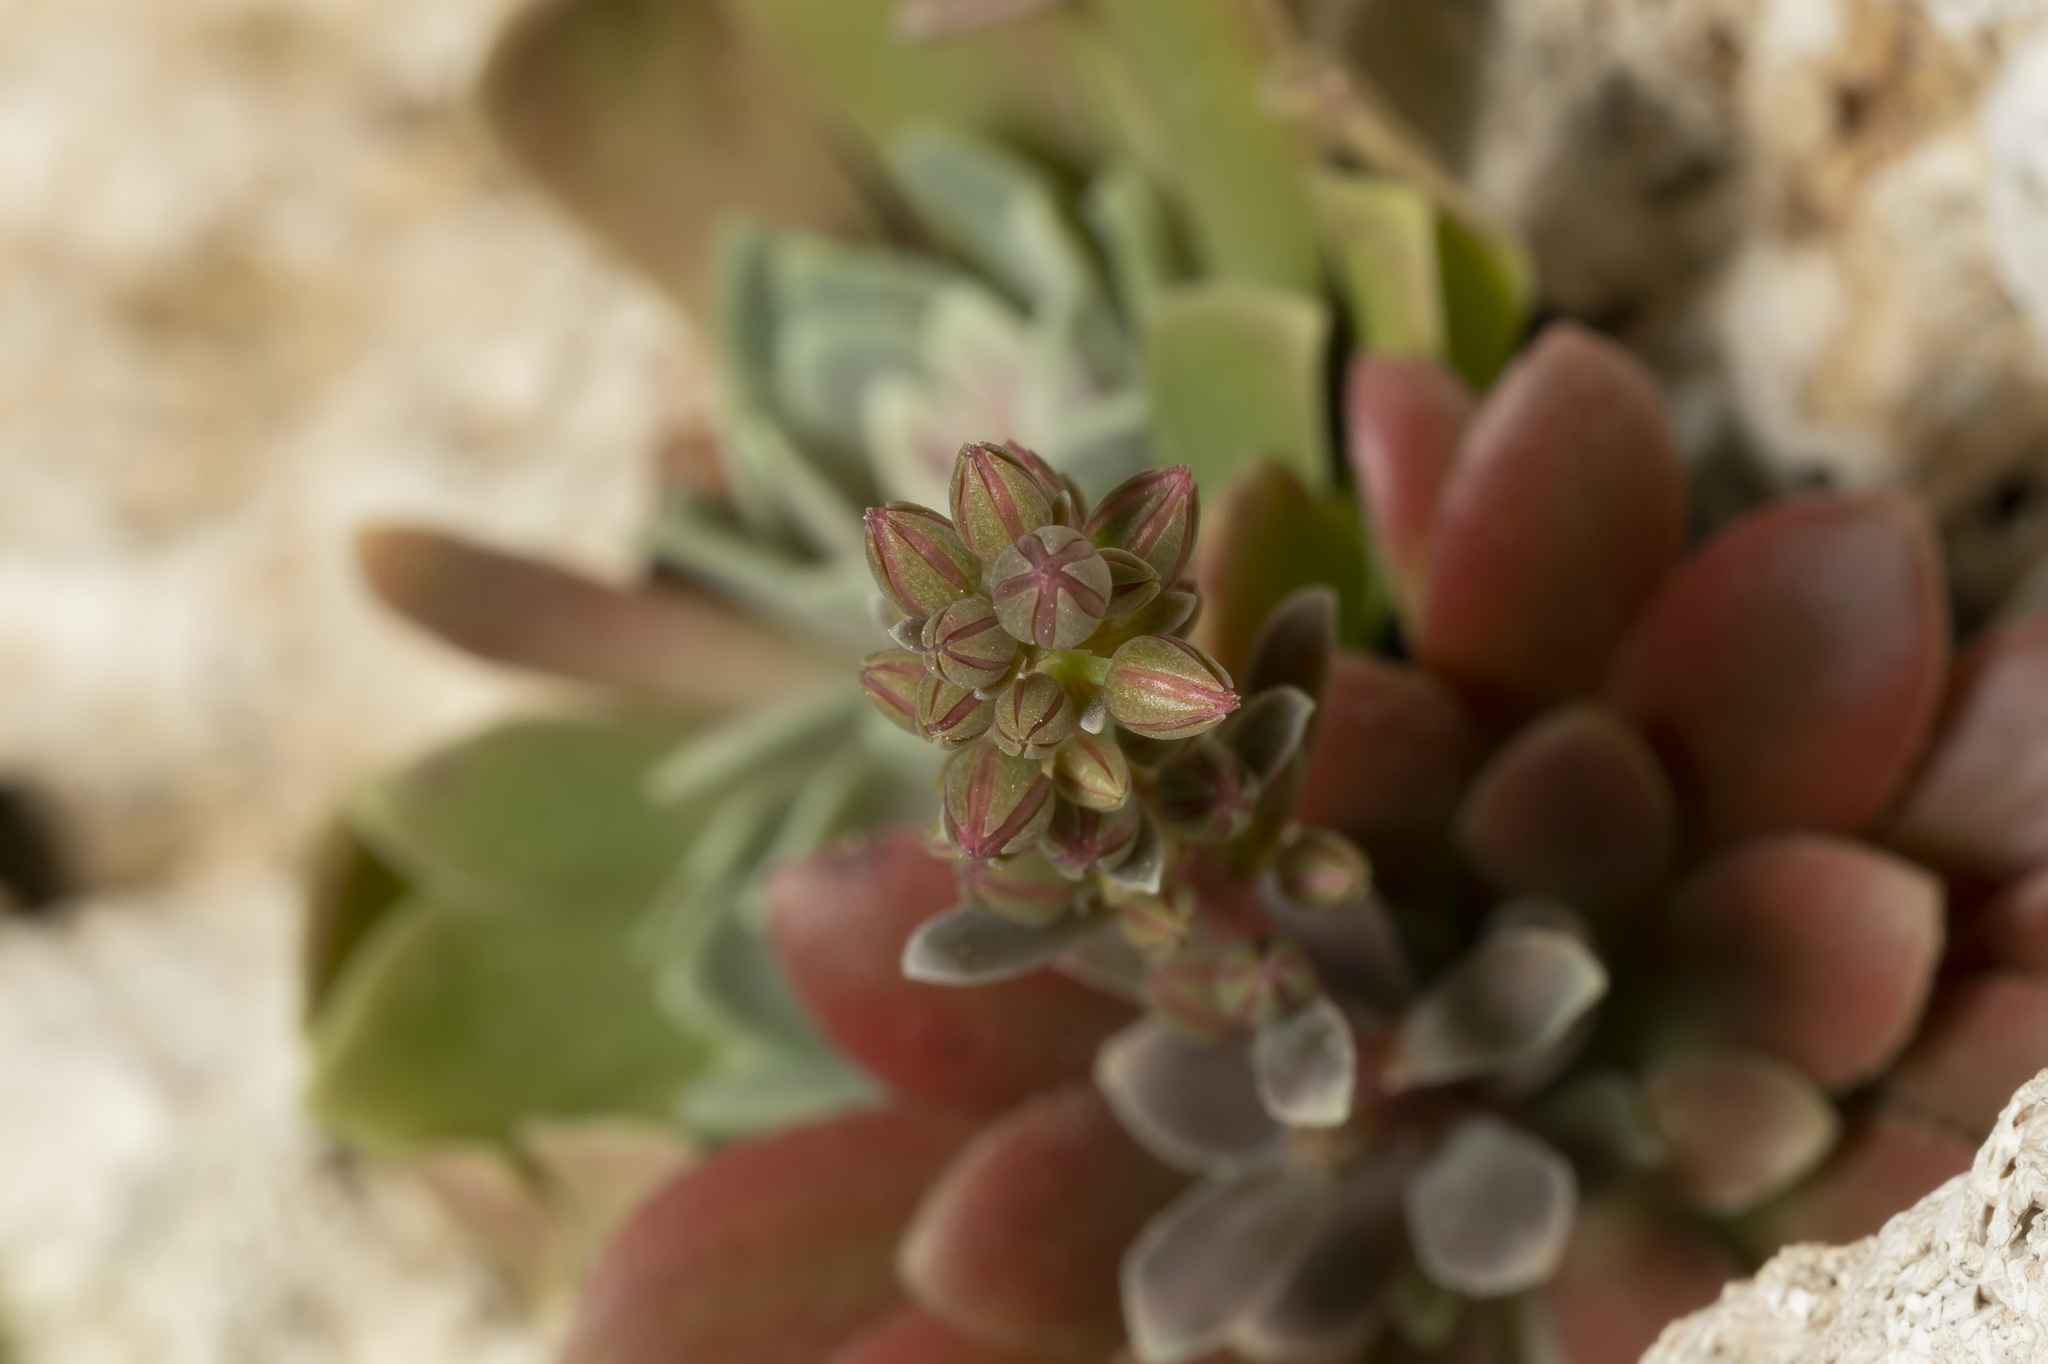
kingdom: Plantae
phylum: Tracheophyta
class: Magnoliopsida
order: Saxifragales
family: Crassulaceae
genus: Rosularia
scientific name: Rosularia serrata
